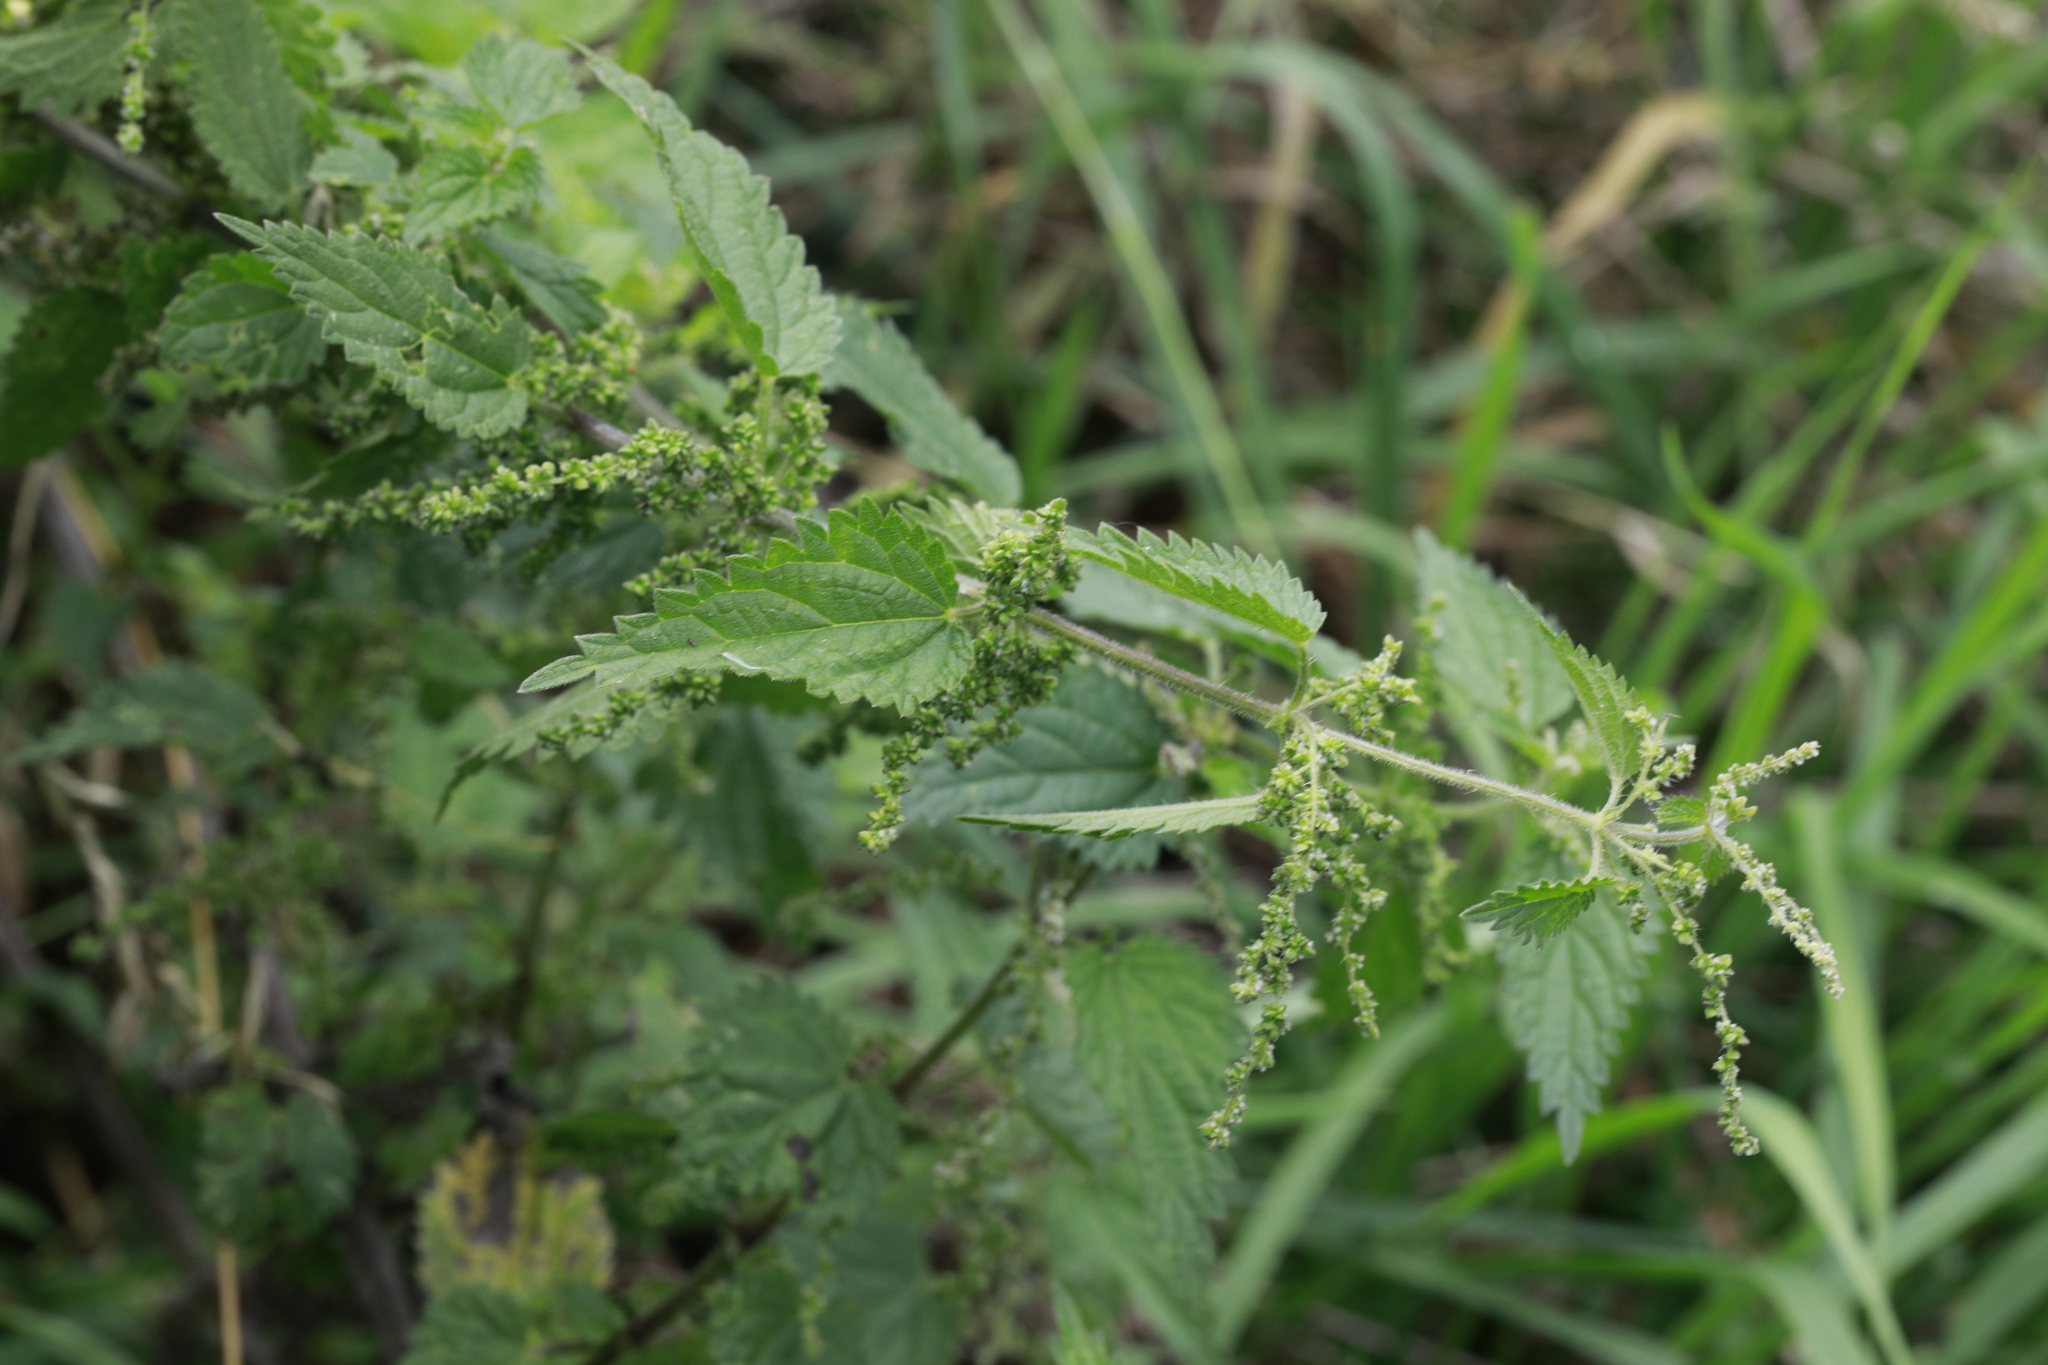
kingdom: Plantae
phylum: Tracheophyta
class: Magnoliopsida
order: Rosales
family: Urticaceae
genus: Urtica
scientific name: Urtica dioica
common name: Common nettle
